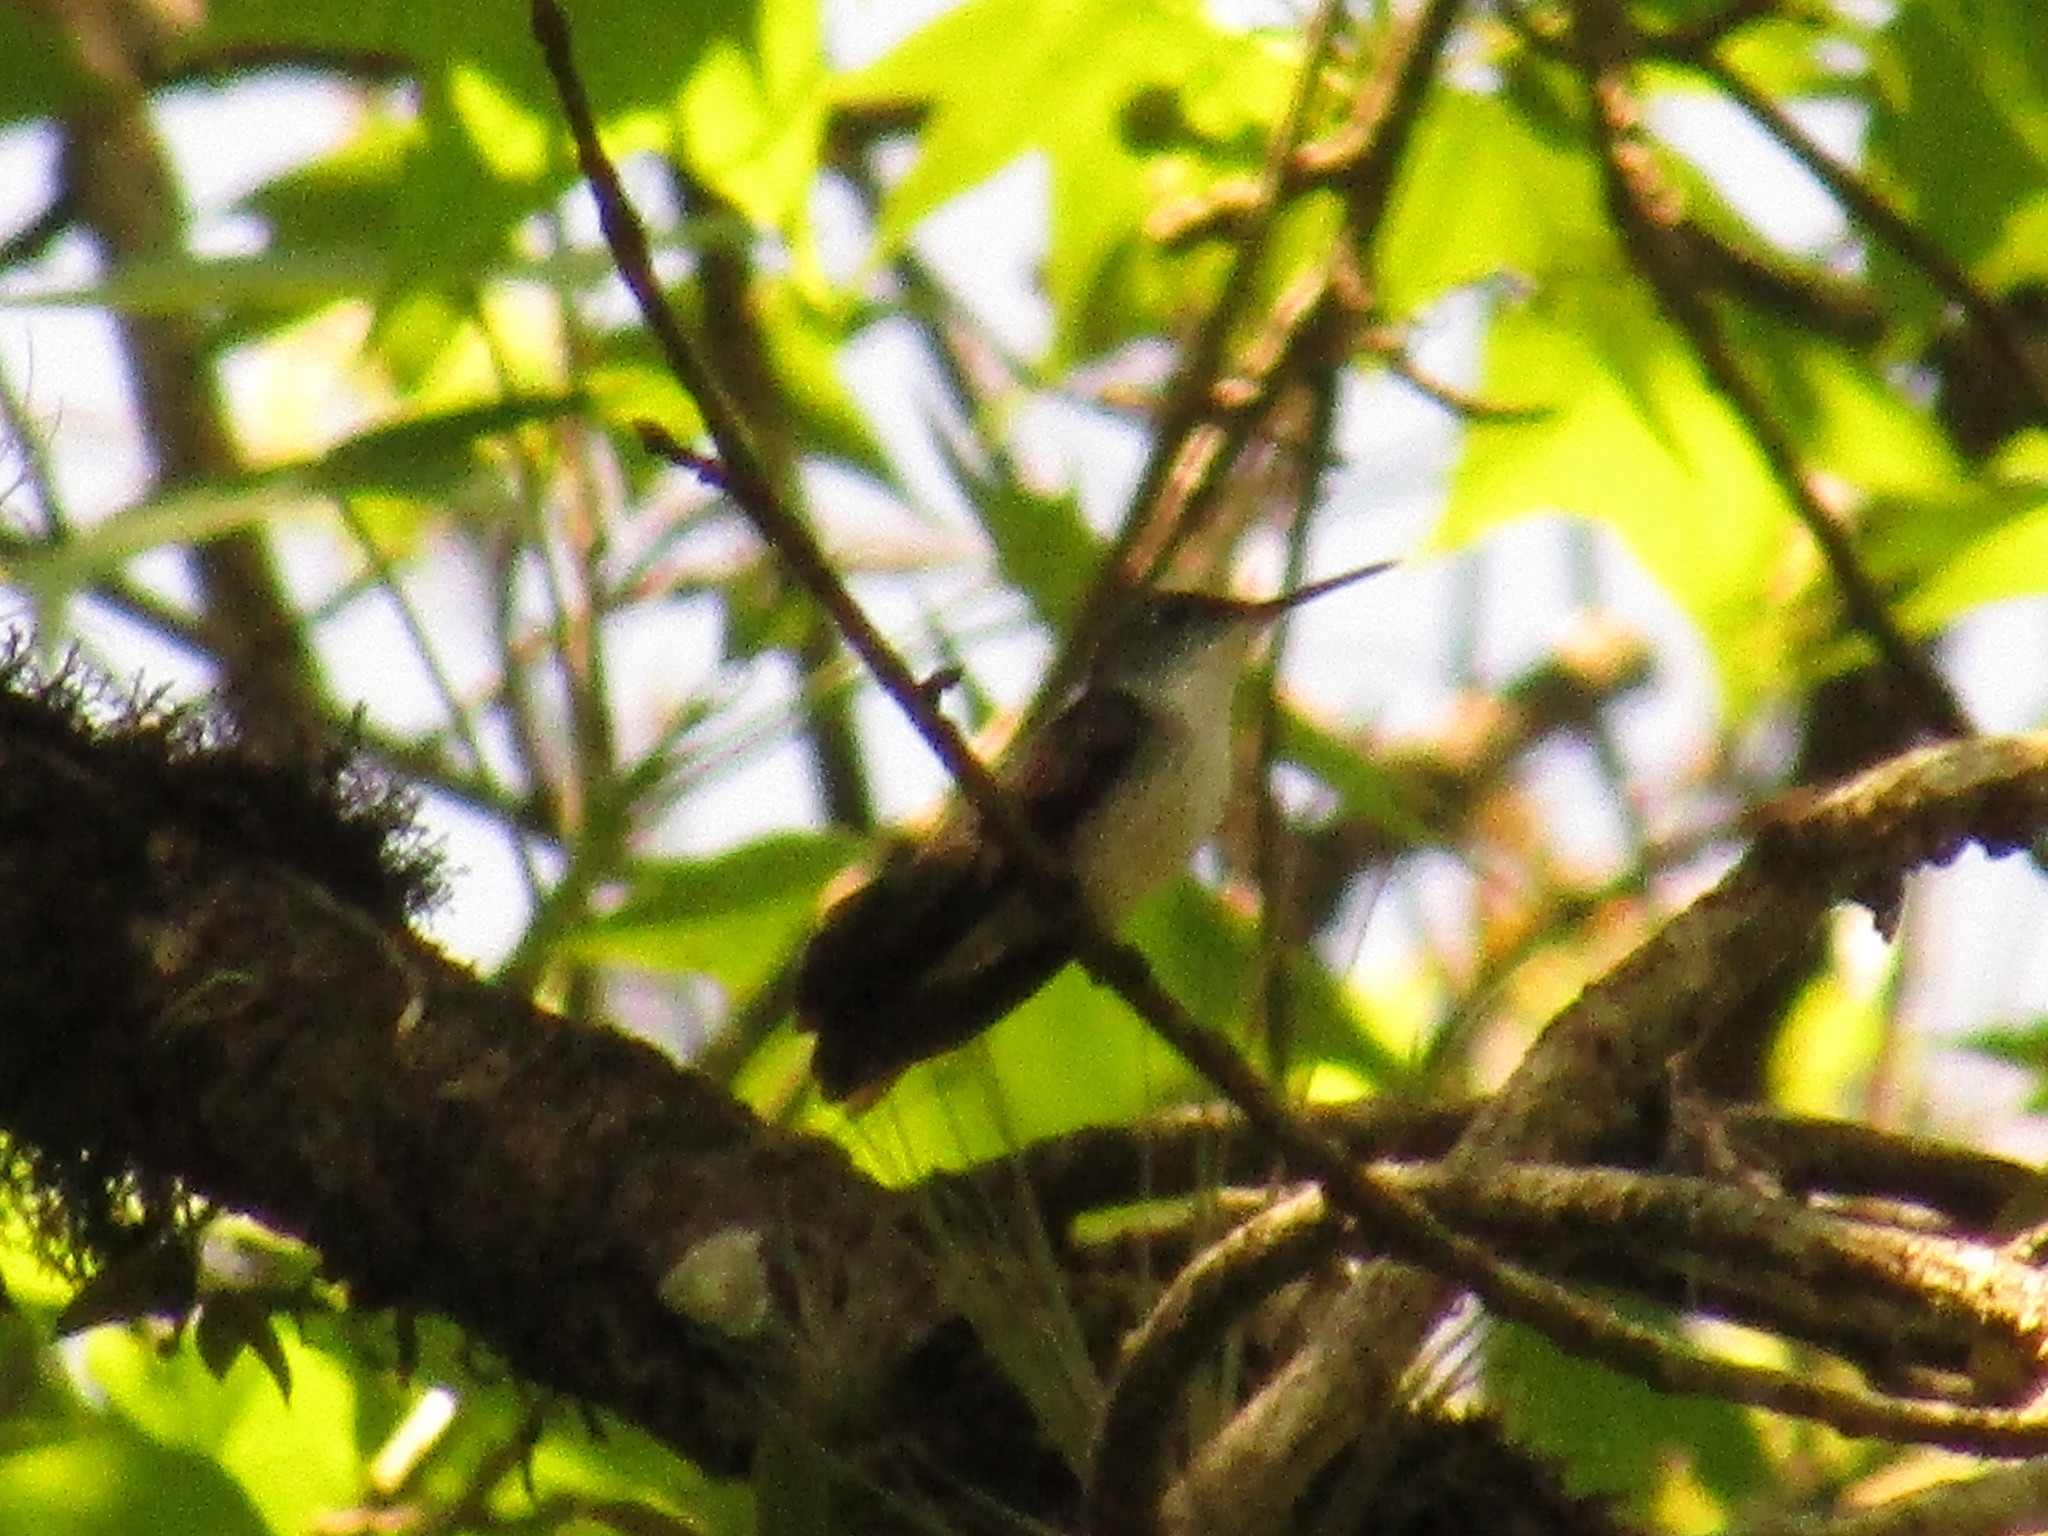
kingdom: Animalia
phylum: Chordata
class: Aves
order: Apodiformes
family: Trochilidae
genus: Saucerottia
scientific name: Saucerottia cyanocephala
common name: Azure-crowned hummingbird
